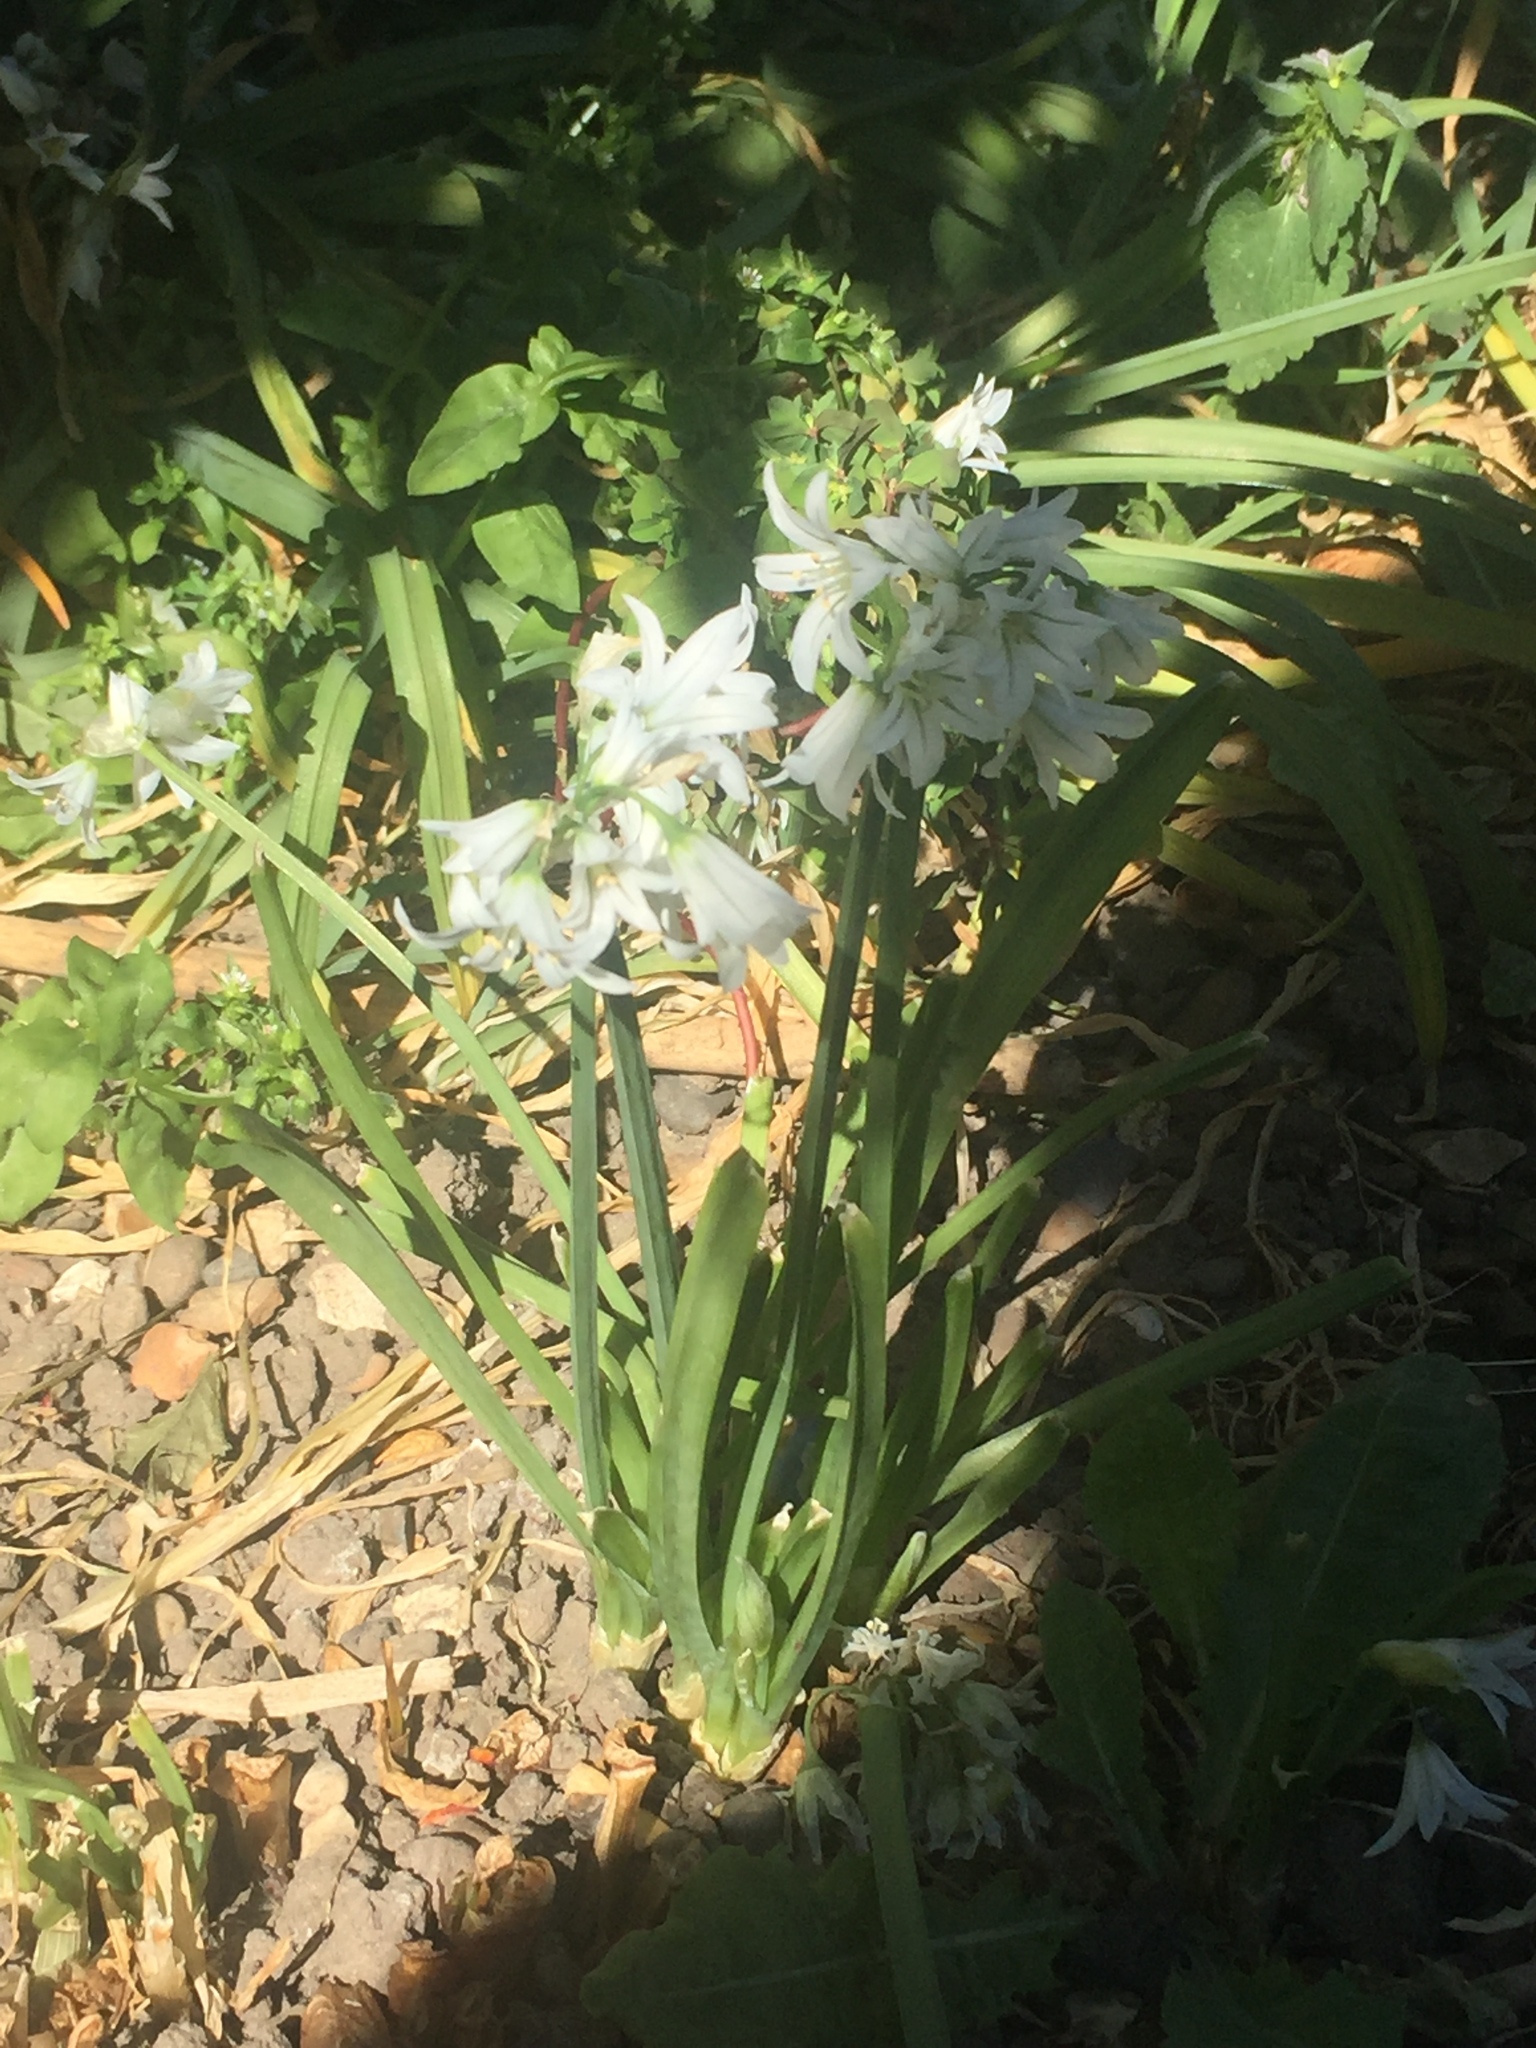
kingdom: Plantae
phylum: Tracheophyta
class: Liliopsida
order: Asparagales
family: Amaryllidaceae
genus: Allium
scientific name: Allium triquetrum
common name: Three-cornered garlic
